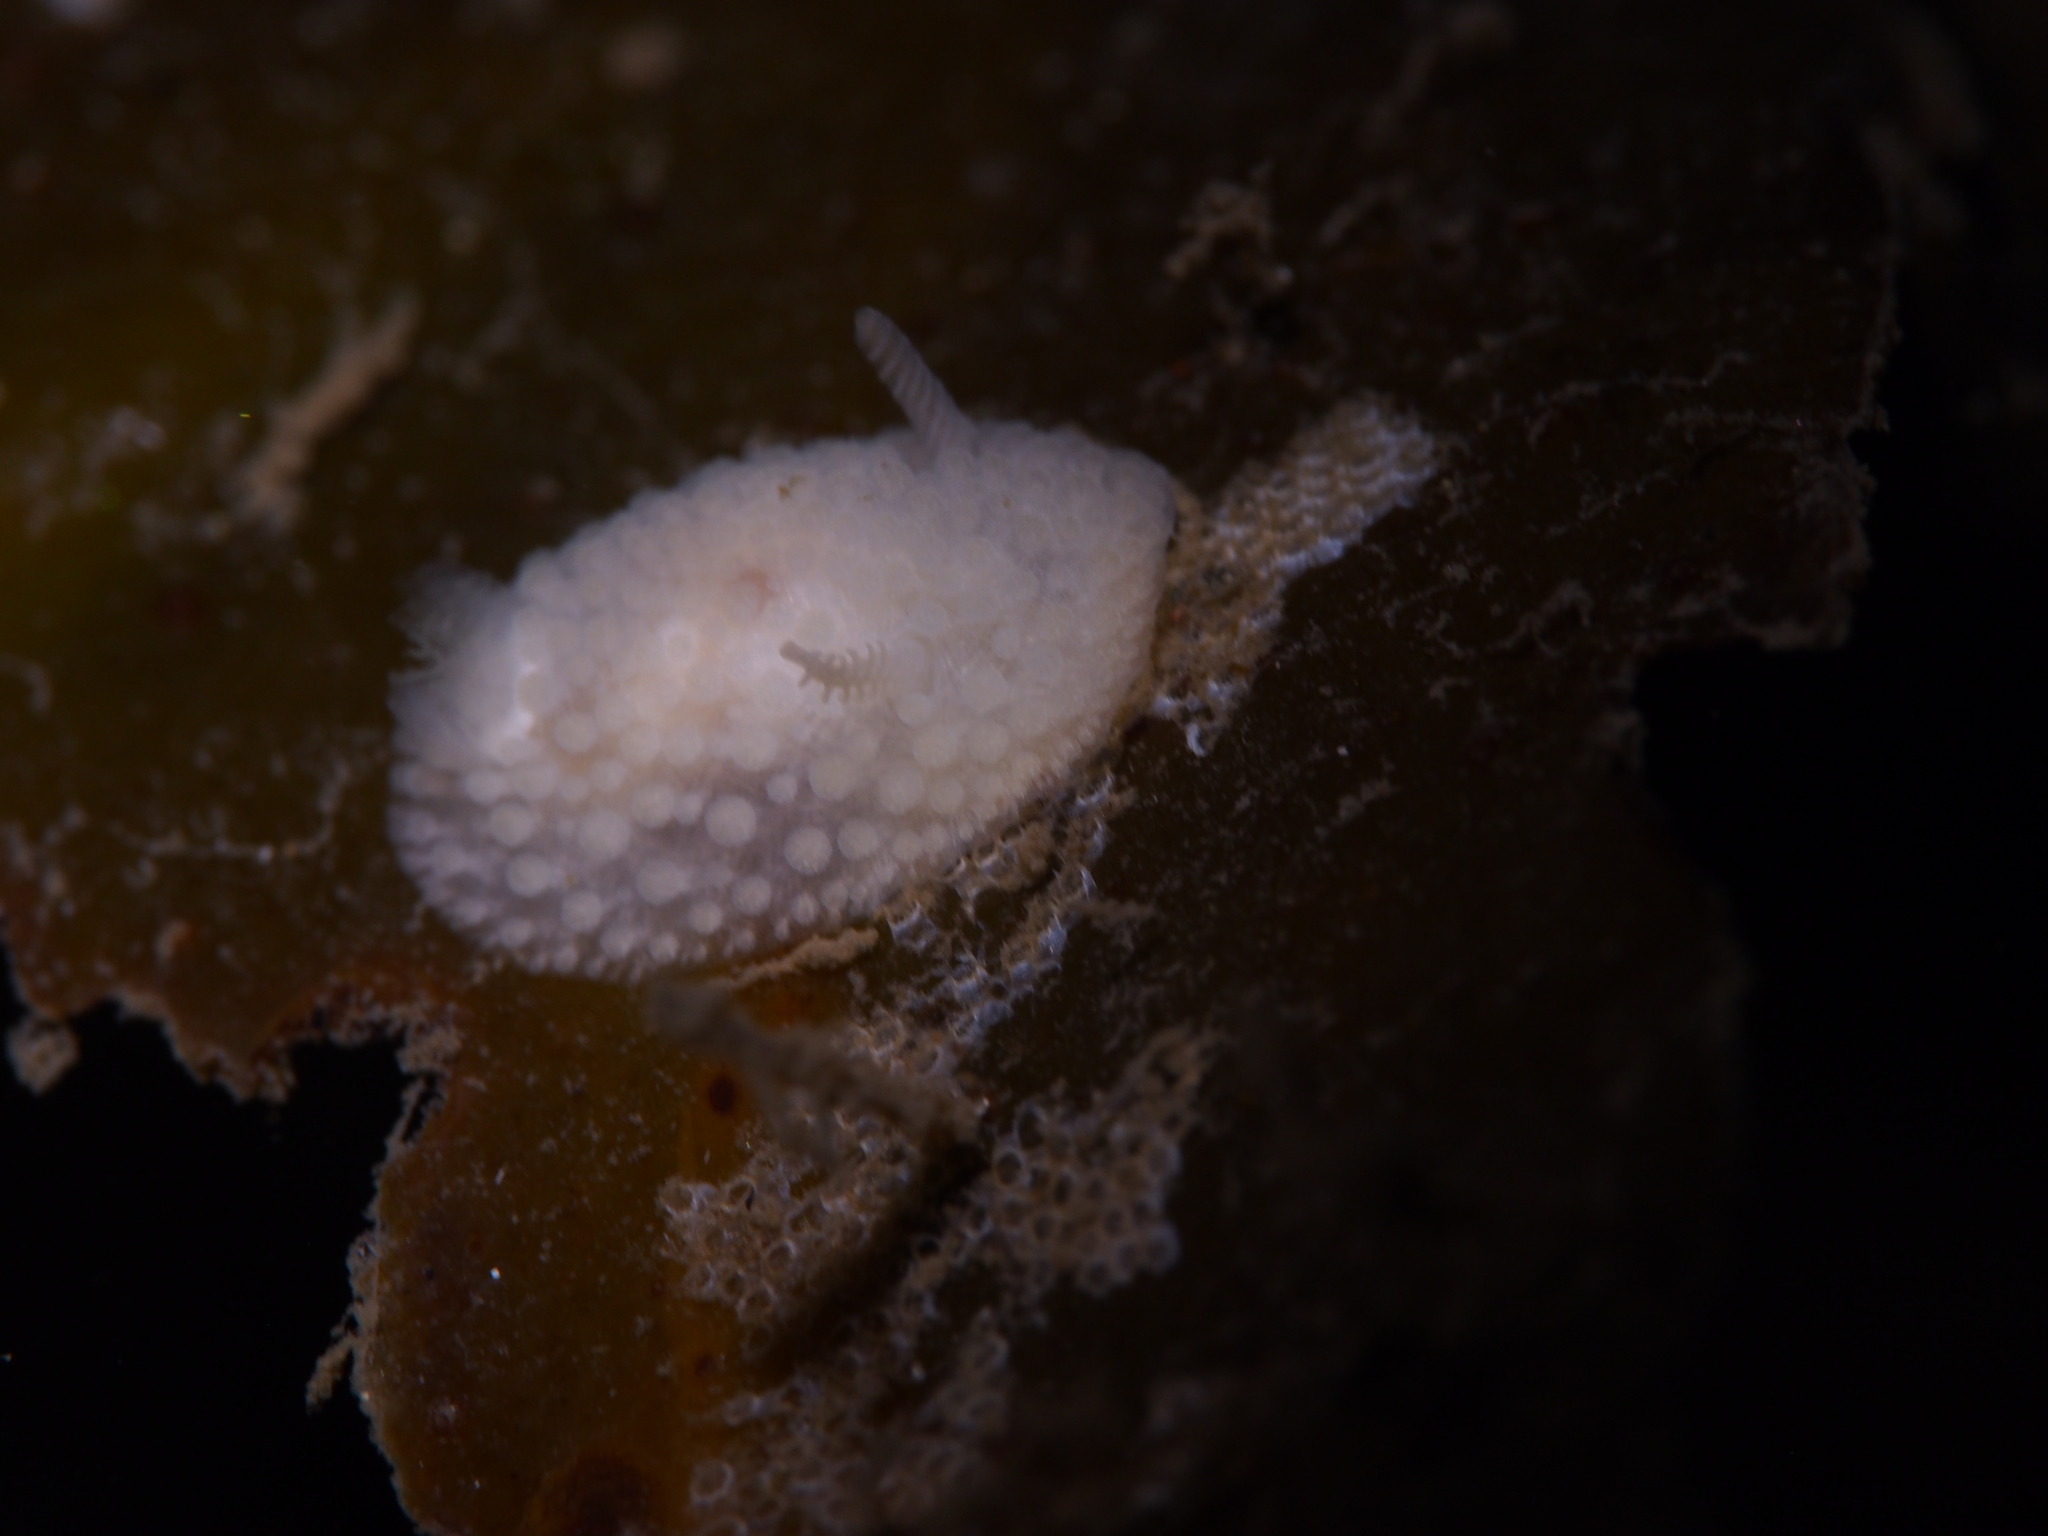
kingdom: Animalia
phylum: Mollusca
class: Gastropoda
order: Nudibranchia
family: Onchidorididae
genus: Onchidoris
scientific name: Onchidoris muricata
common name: Rough doris
